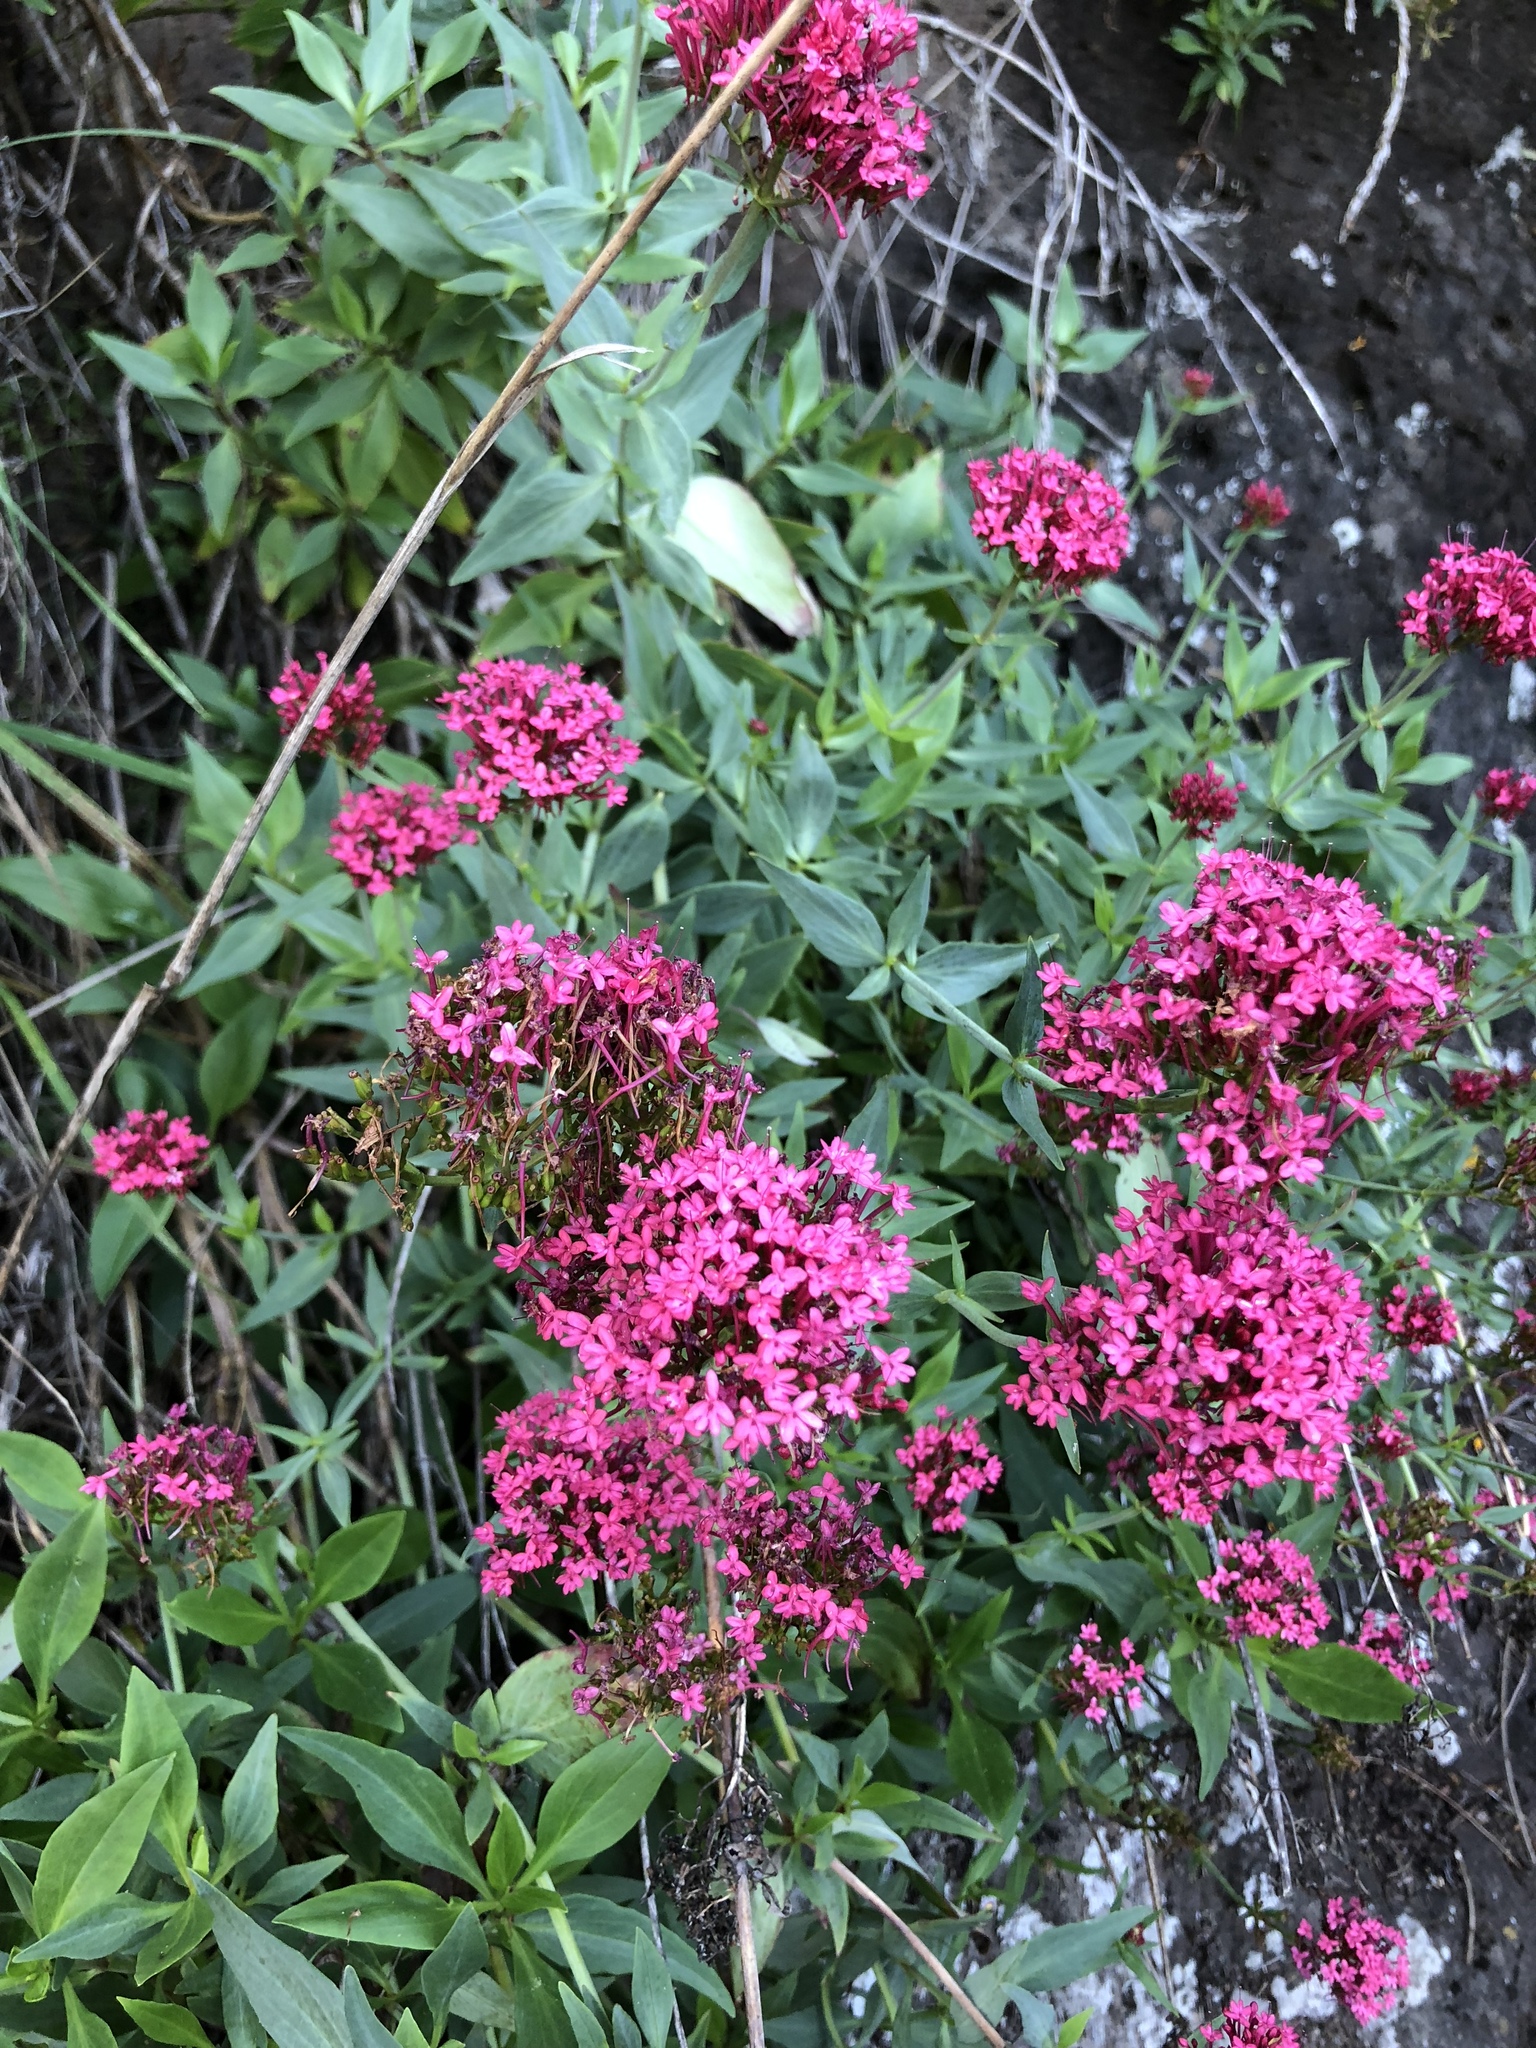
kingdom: Plantae
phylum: Tracheophyta
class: Magnoliopsida
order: Dipsacales
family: Caprifoliaceae
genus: Centranthus
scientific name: Centranthus ruber
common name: Red valerian
